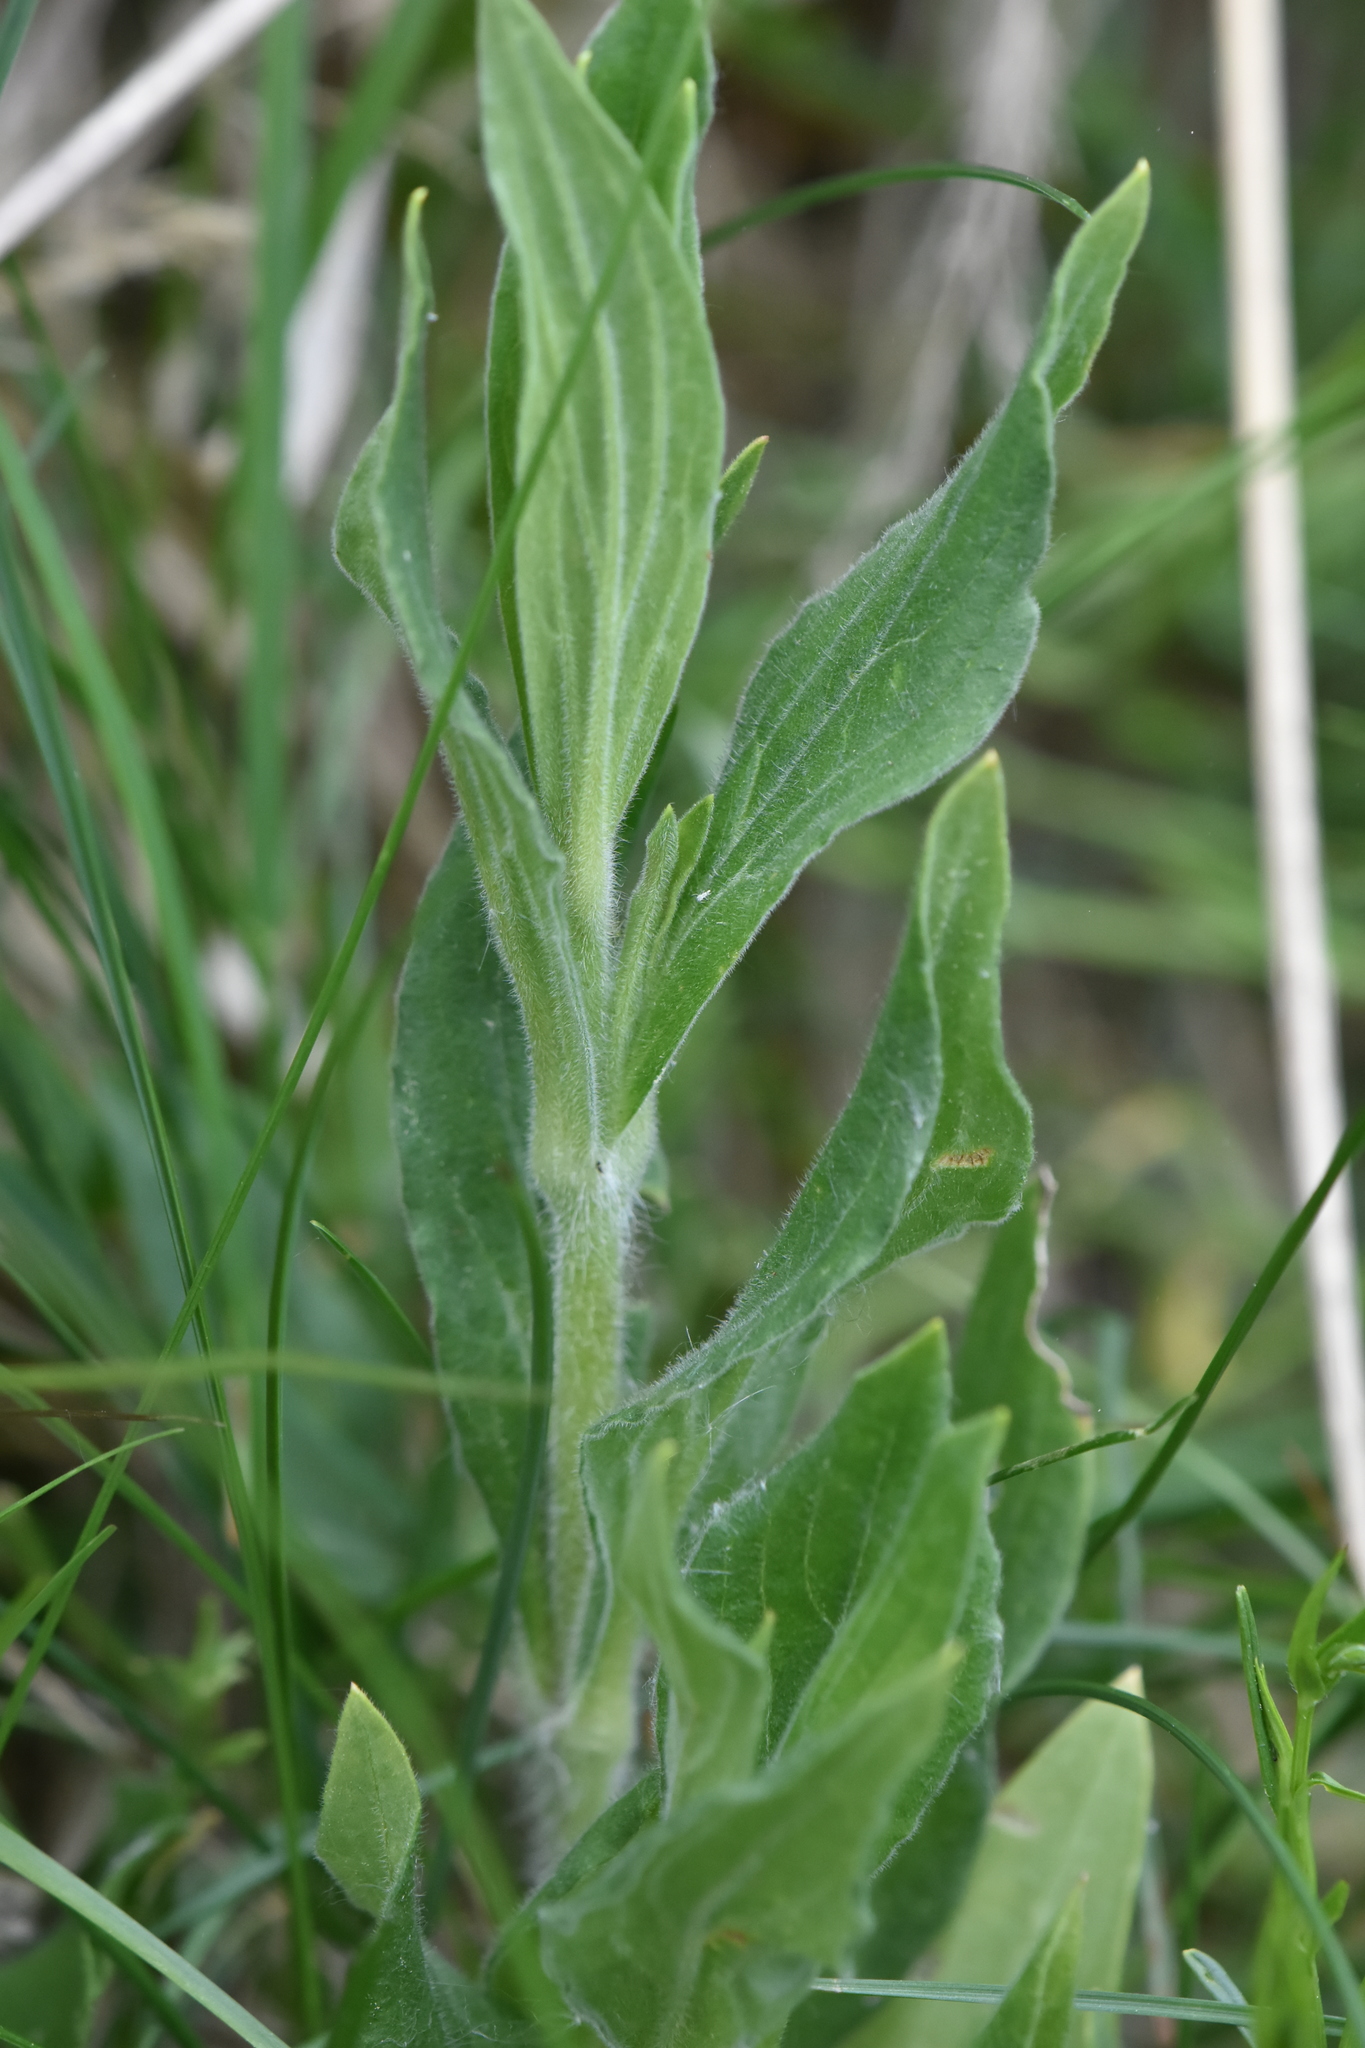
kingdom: Plantae
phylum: Tracheophyta
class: Magnoliopsida
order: Caryophyllales
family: Caryophyllaceae
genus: Silene
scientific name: Silene latifolia
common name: White campion
